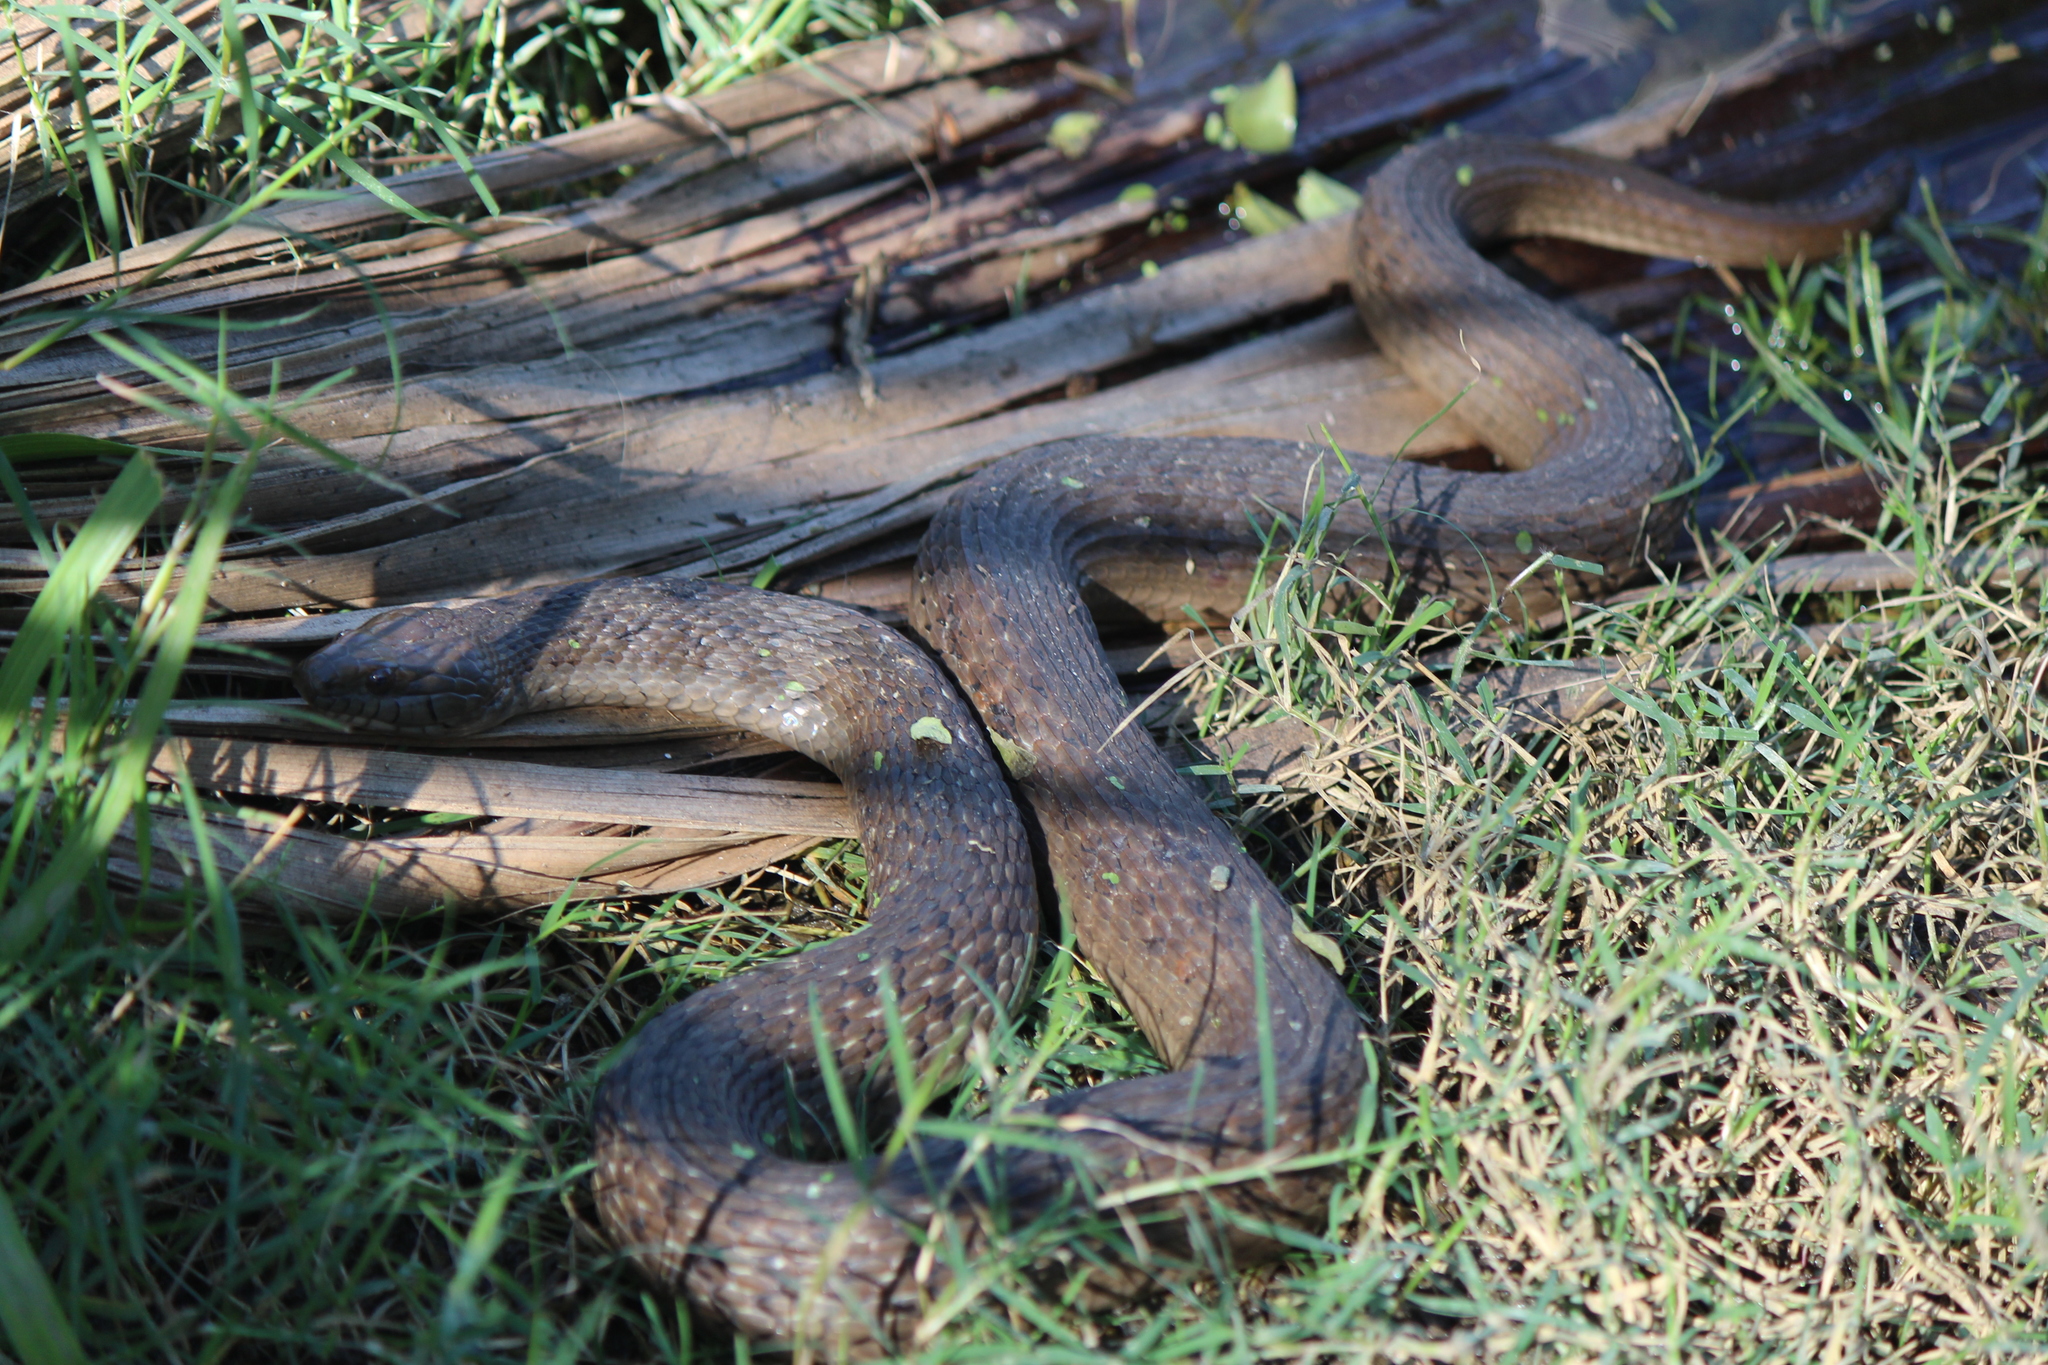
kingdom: Animalia
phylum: Chordata
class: Squamata
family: Colubridae
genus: Thamnophis
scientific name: Thamnophis validus
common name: West coast garter snake
